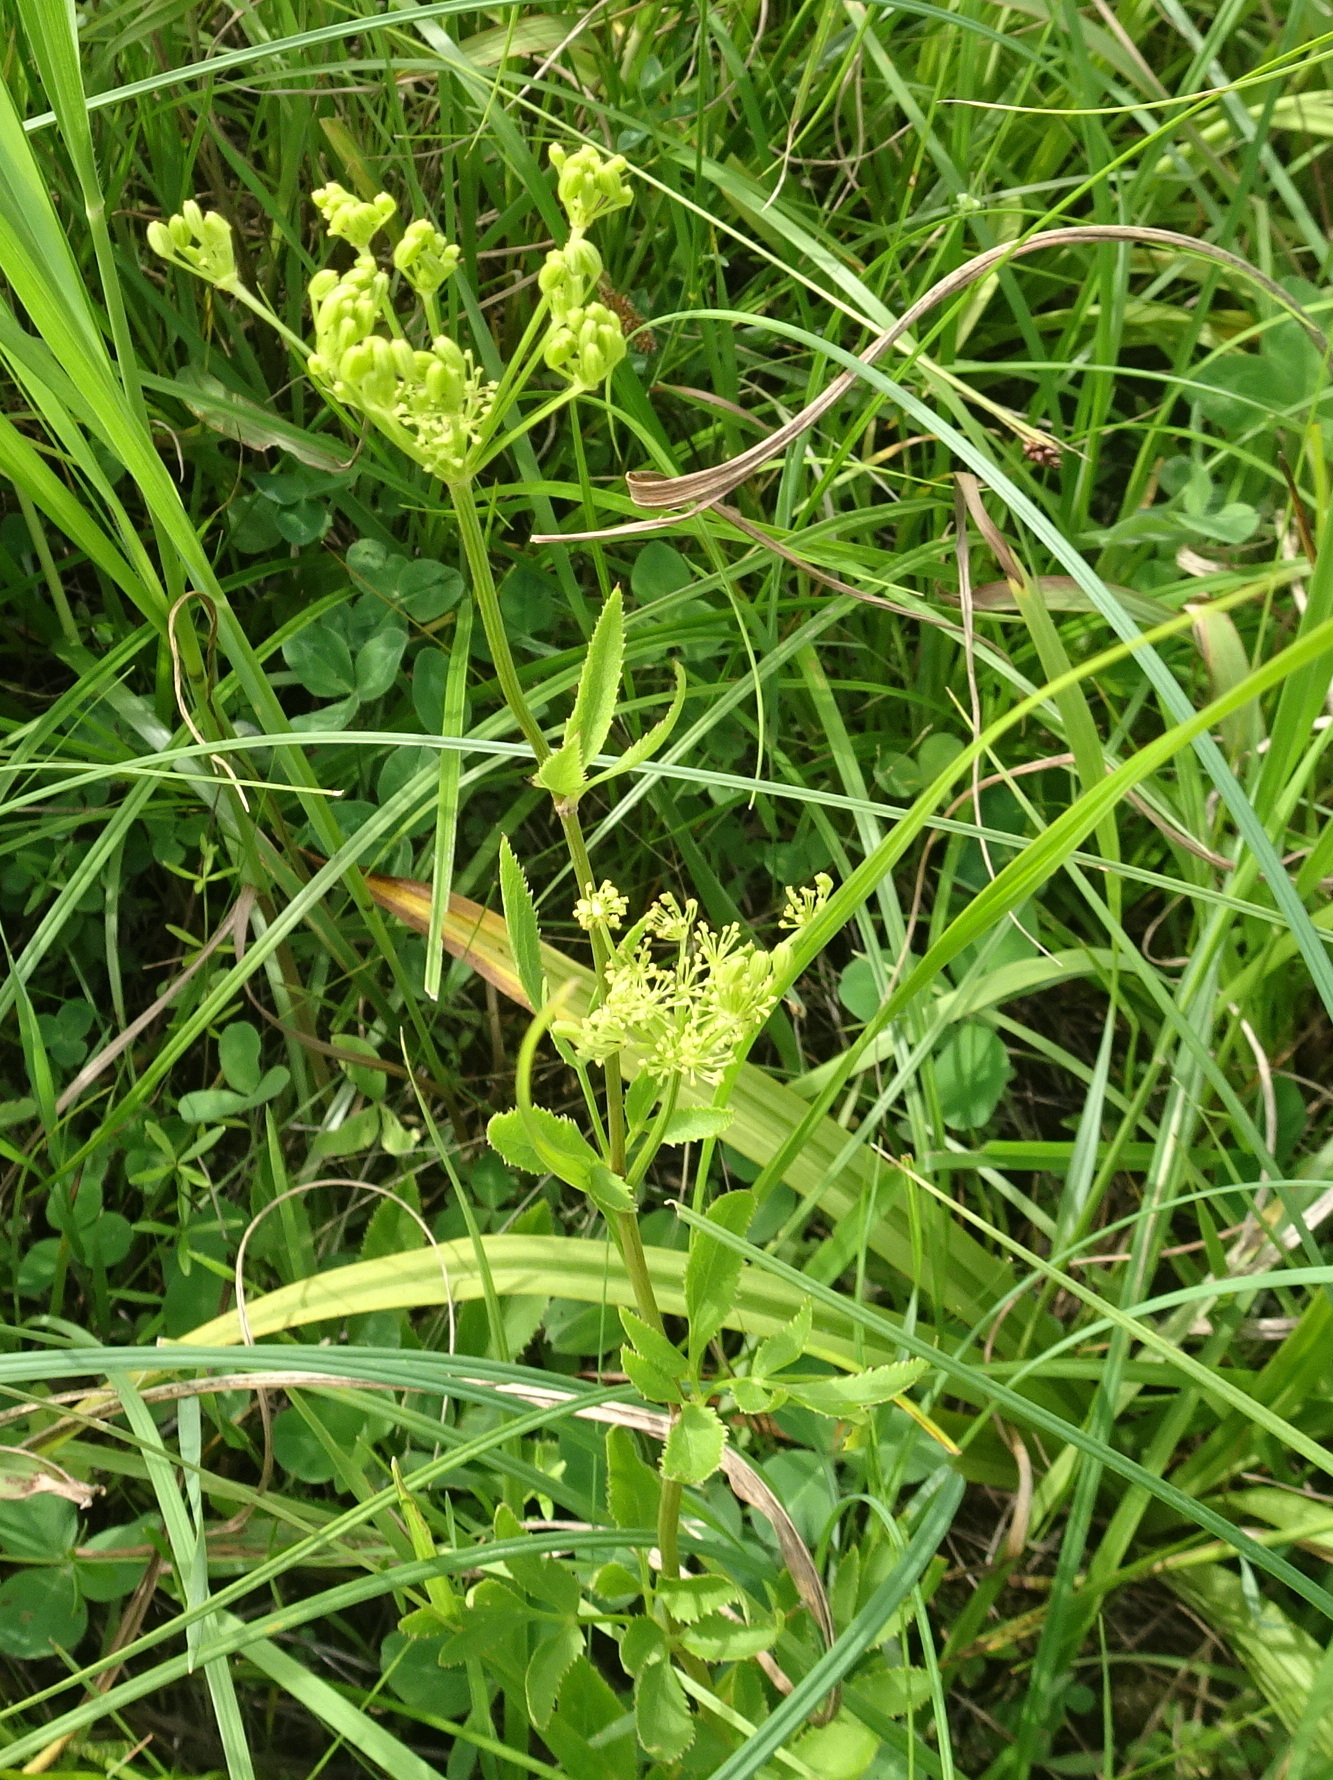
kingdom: Plantae
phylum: Tracheophyta
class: Magnoliopsida
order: Apiales
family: Apiaceae
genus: Zizia
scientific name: Zizia aurea
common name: Golden alexanders
